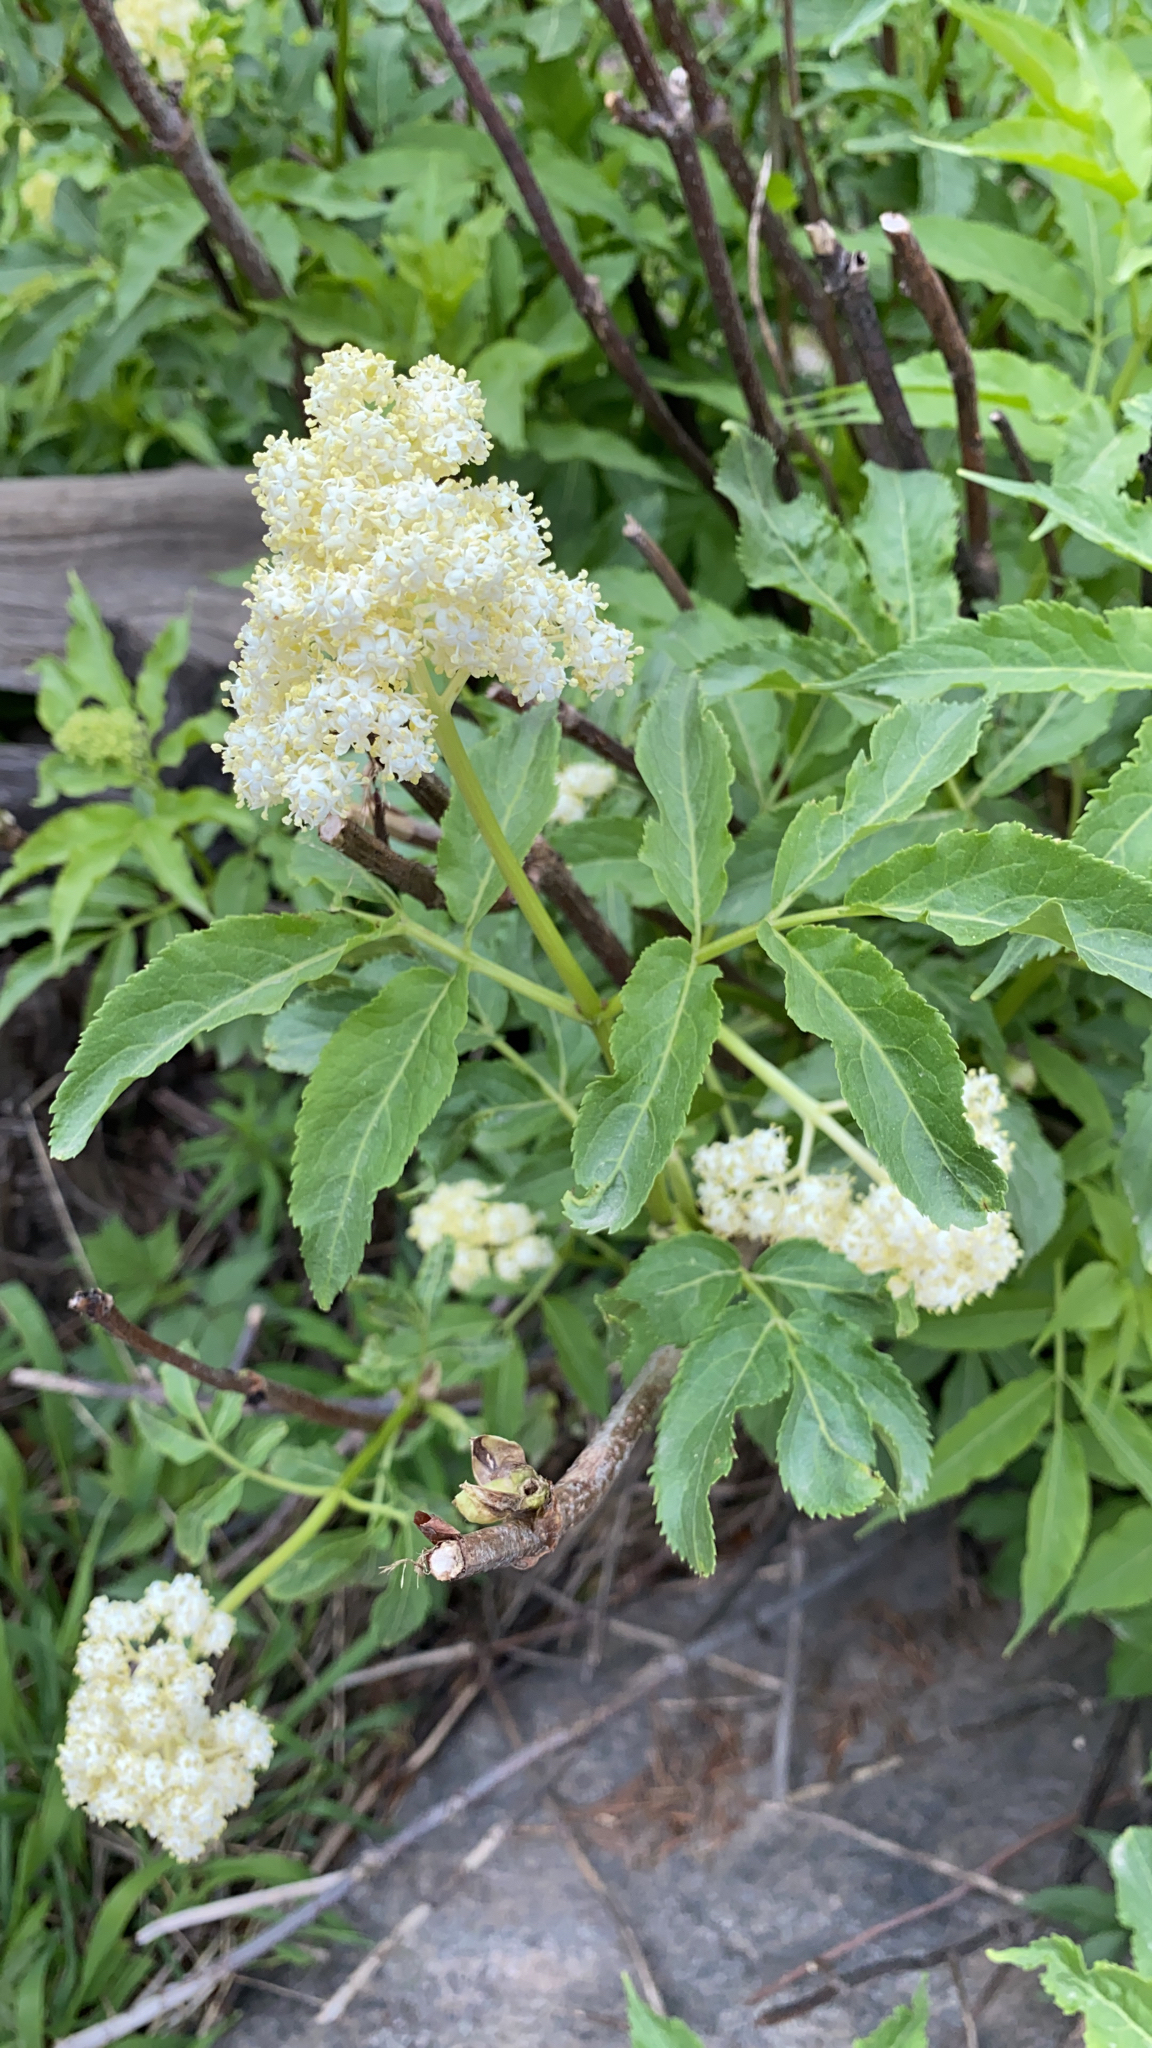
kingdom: Plantae
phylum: Tracheophyta
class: Magnoliopsida
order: Dipsacales
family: Viburnaceae
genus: Sambucus
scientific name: Sambucus racemosa
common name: Red-berried elder
